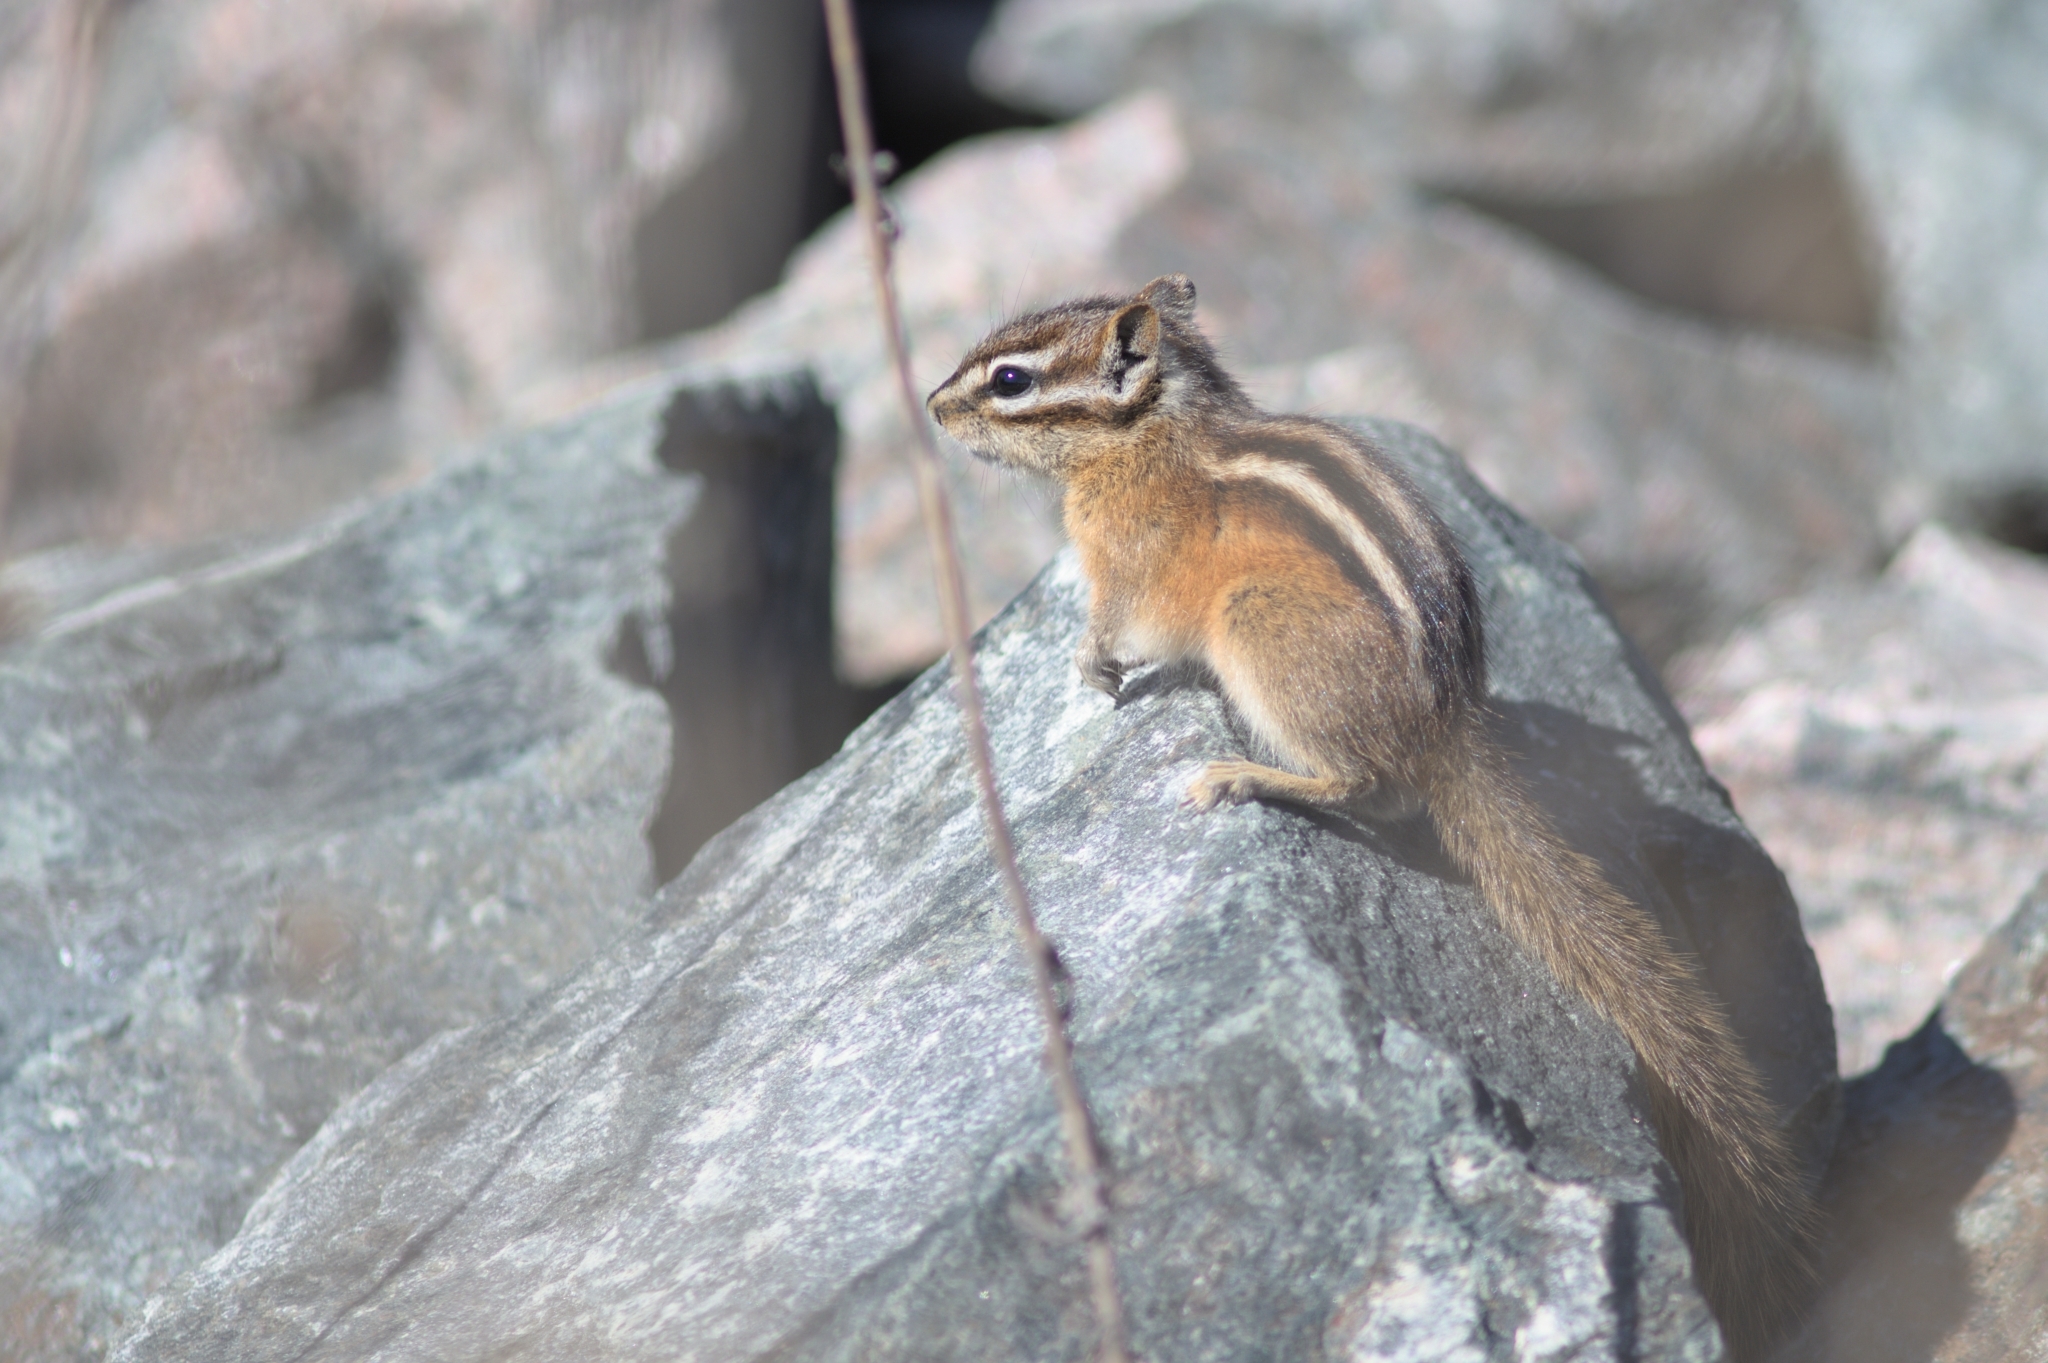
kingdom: Animalia
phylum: Chordata
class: Mammalia
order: Rodentia
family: Sciuridae
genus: Tamias
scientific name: Tamias minimus
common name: Least chipmunk
